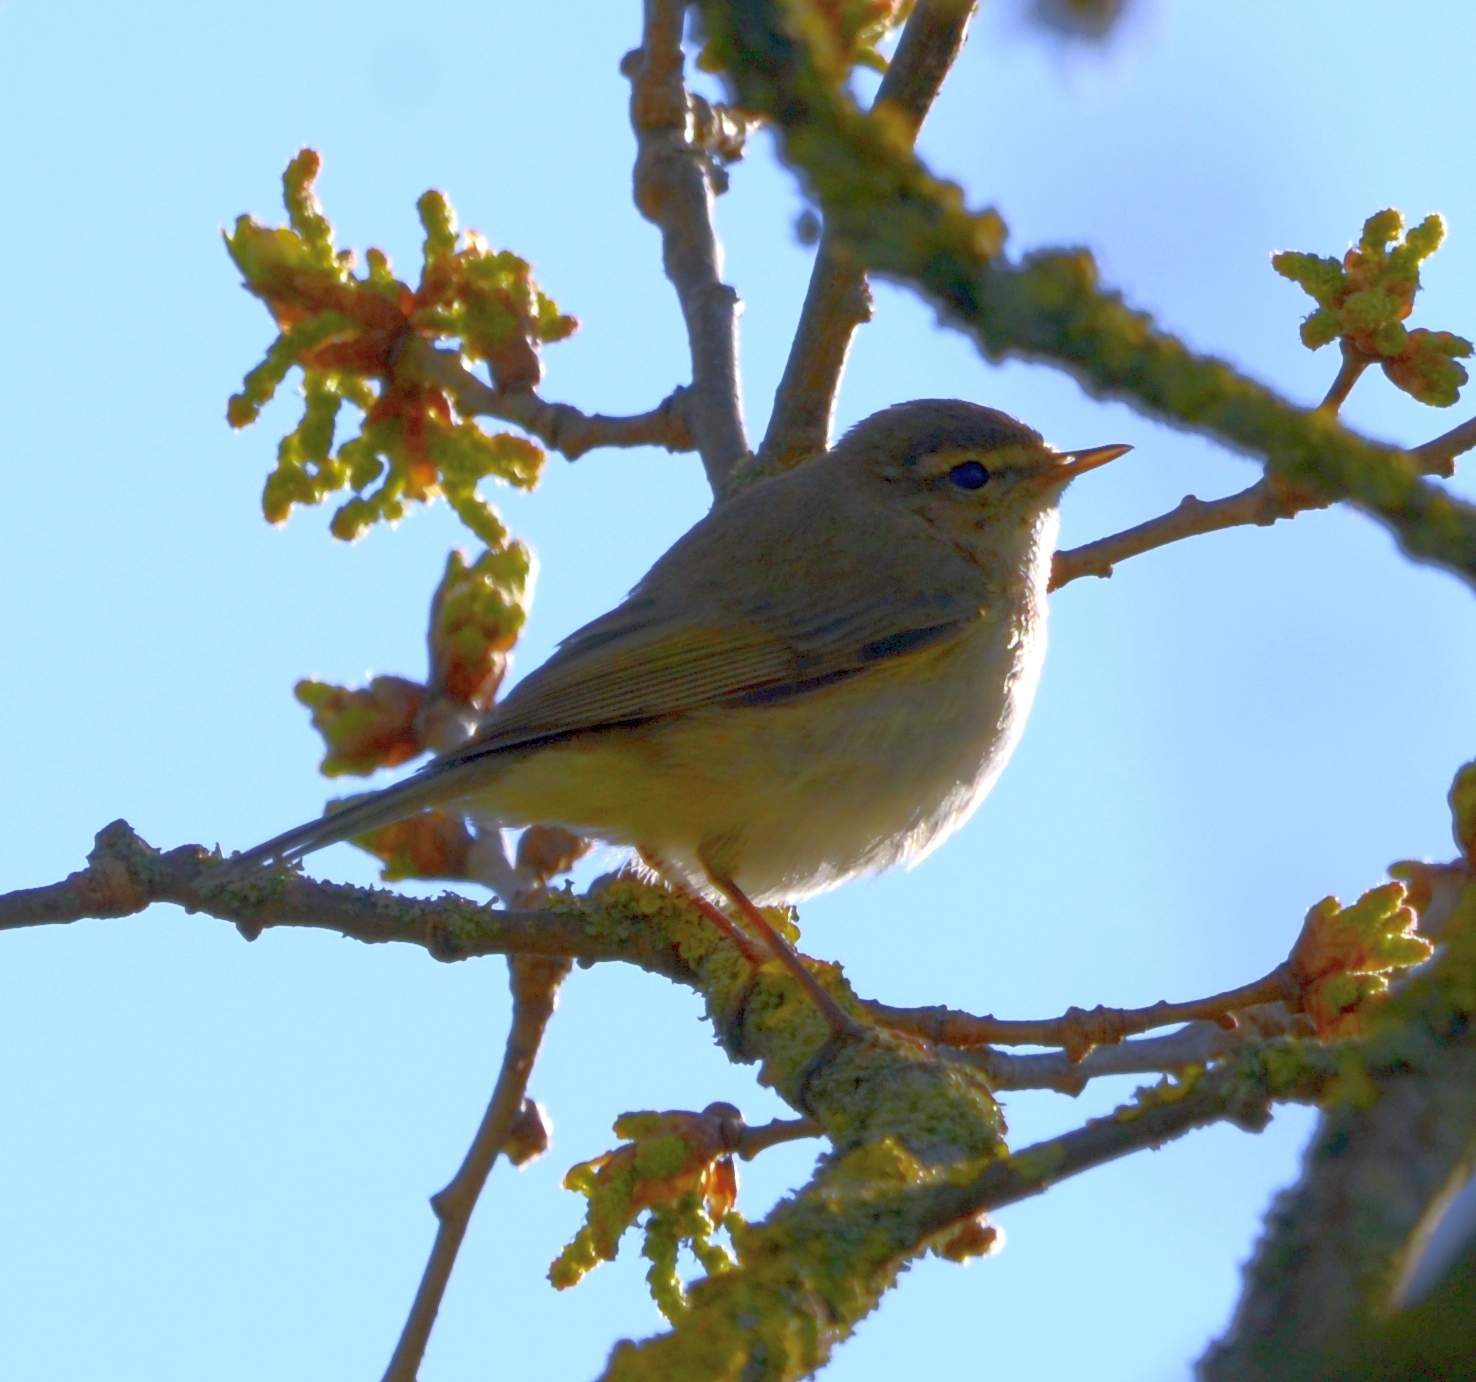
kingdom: Animalia
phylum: Chordata
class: Aves
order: Passeriformes
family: Phylloscopidae
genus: Phylloscopus
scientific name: Phylloscopus trochilus
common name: Willow warbler
